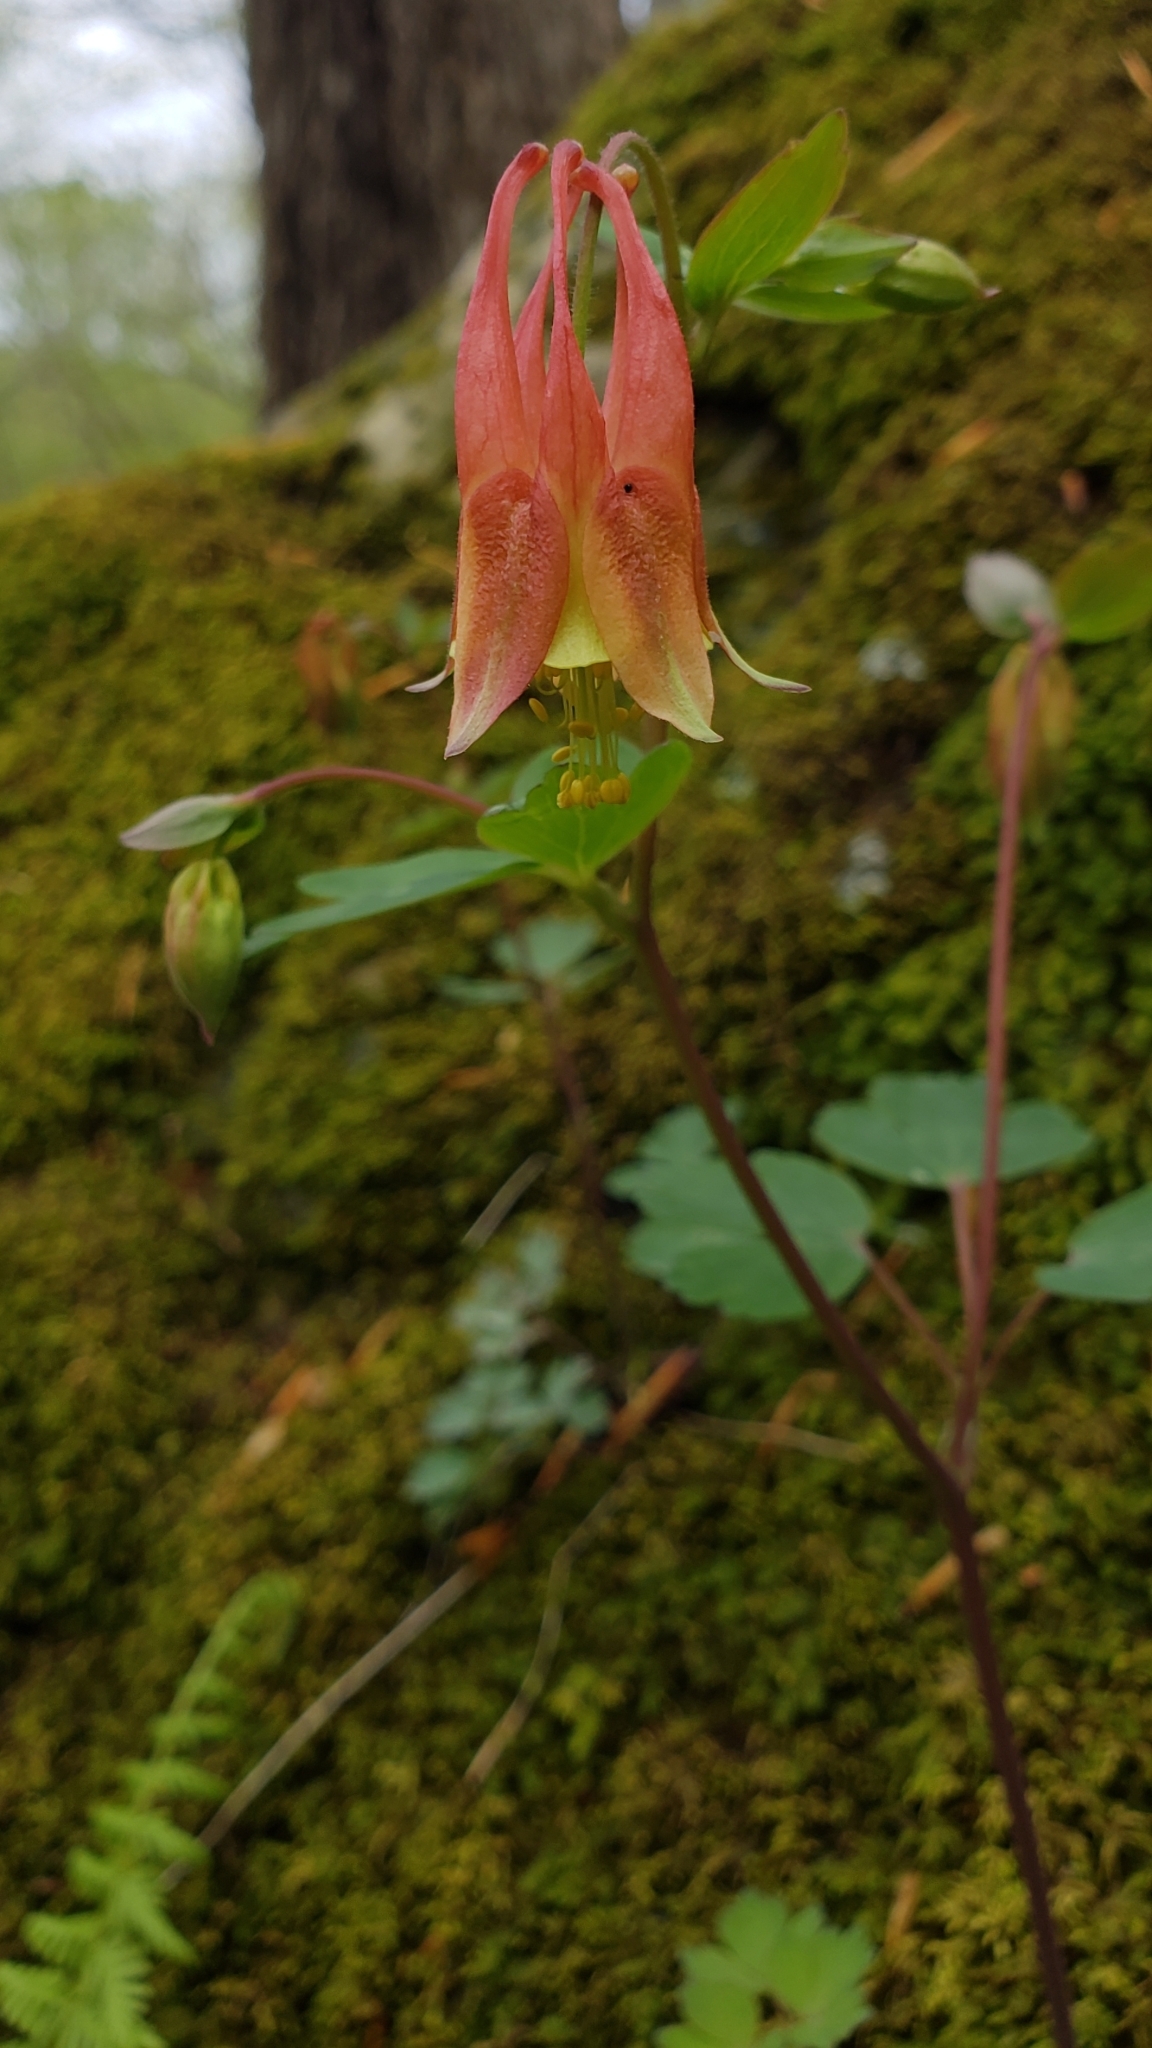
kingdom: Plantae
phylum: Tracheophyta
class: Magnoliopsida
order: Ranunculales
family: Ranunculaceae
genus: Aquilegia
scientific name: Aquilegia canadensis
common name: American columbine
